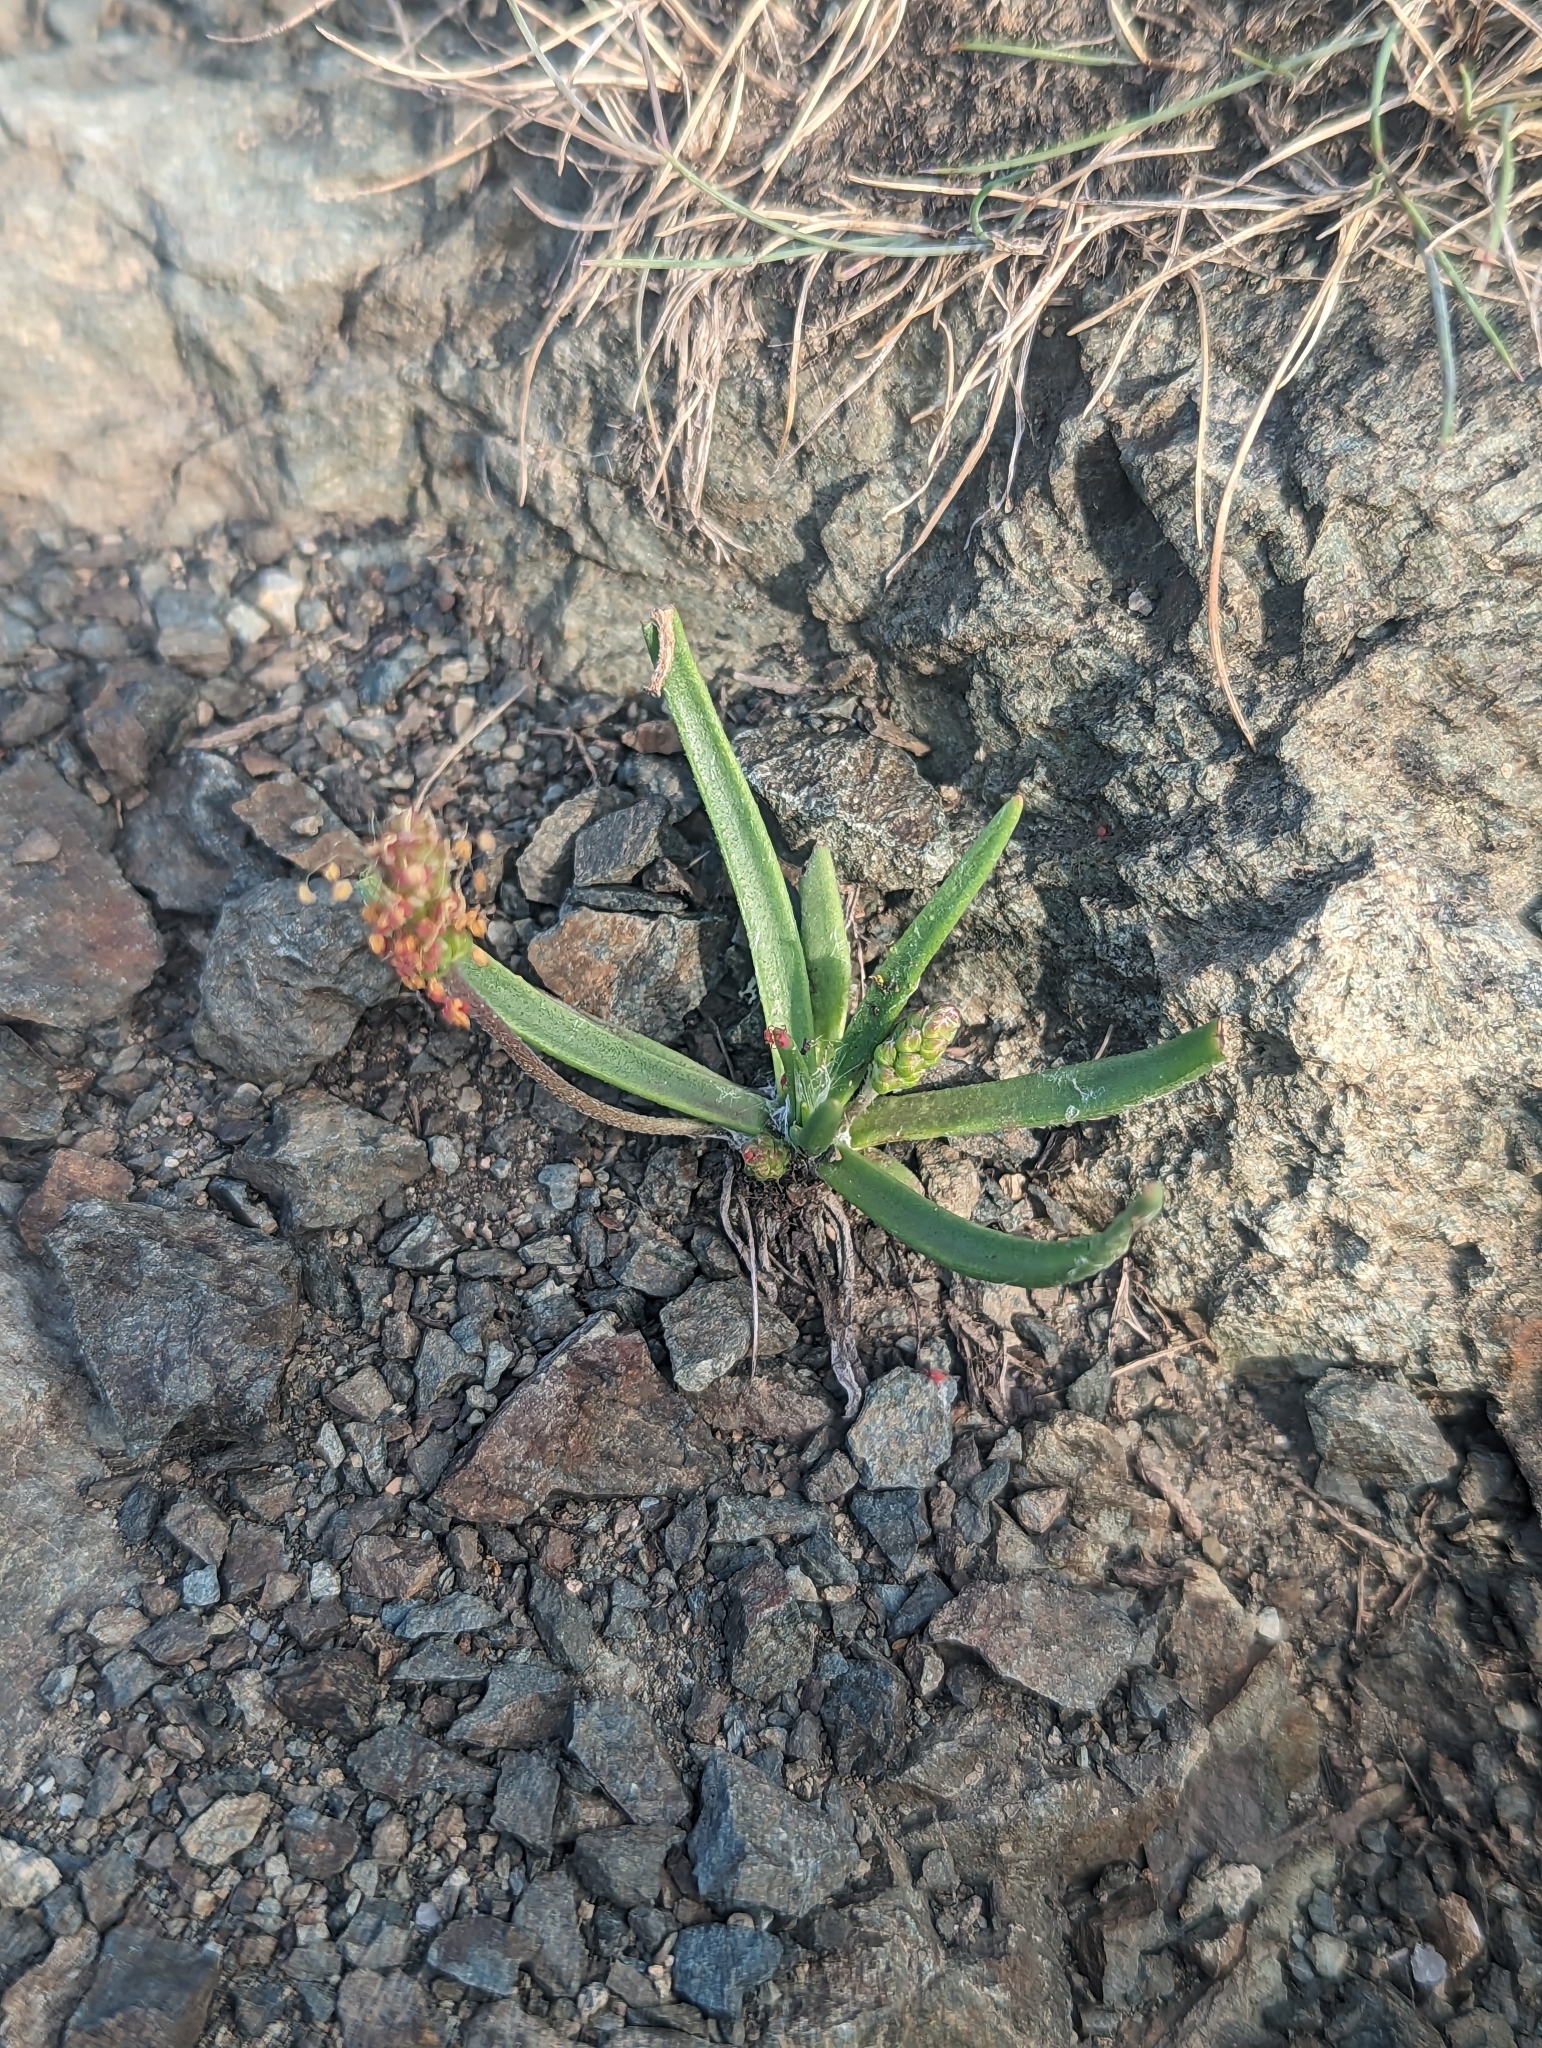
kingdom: Plantae
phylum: Tracheophyta
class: Magnoliopsida
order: Lamiales
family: Plantaginaceae
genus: Plantago
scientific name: Plantago maritima
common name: Sea plantain
